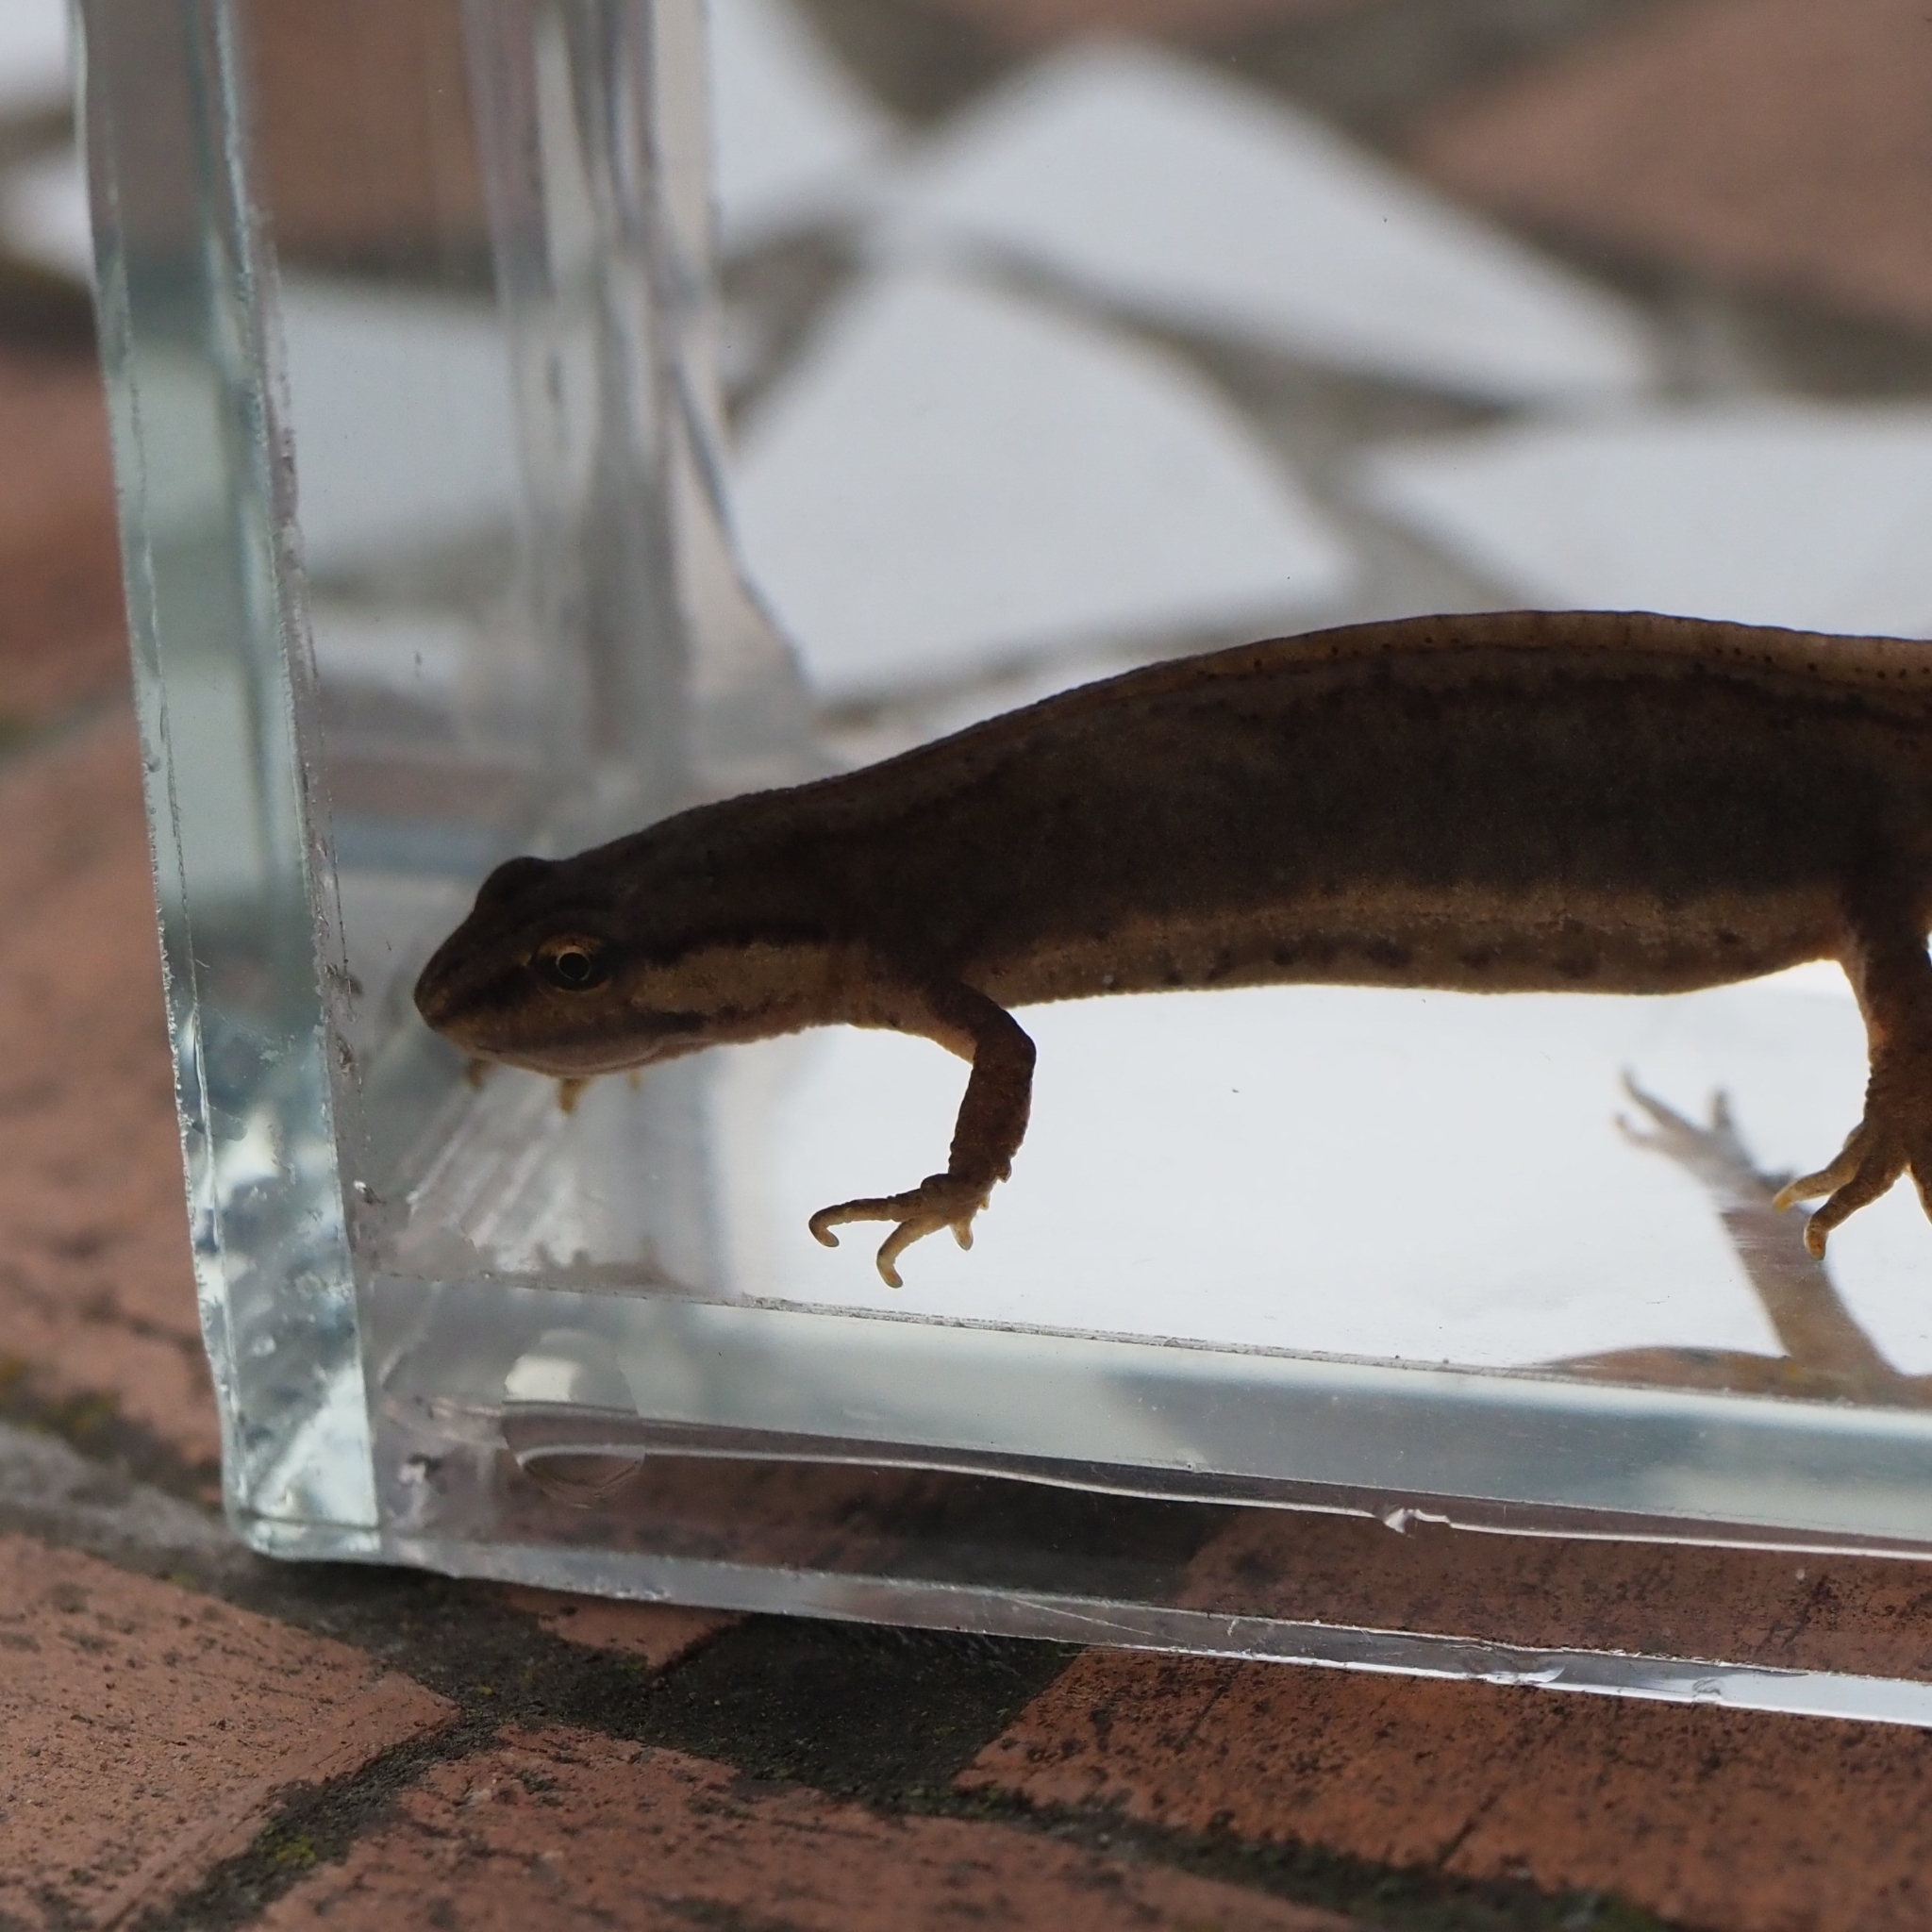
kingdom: Animalia
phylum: Chordata
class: Amphibia
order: Caudata
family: Salamandridae
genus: Lissotriton
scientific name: Lissotriton vulgaris
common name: Smooth newt
